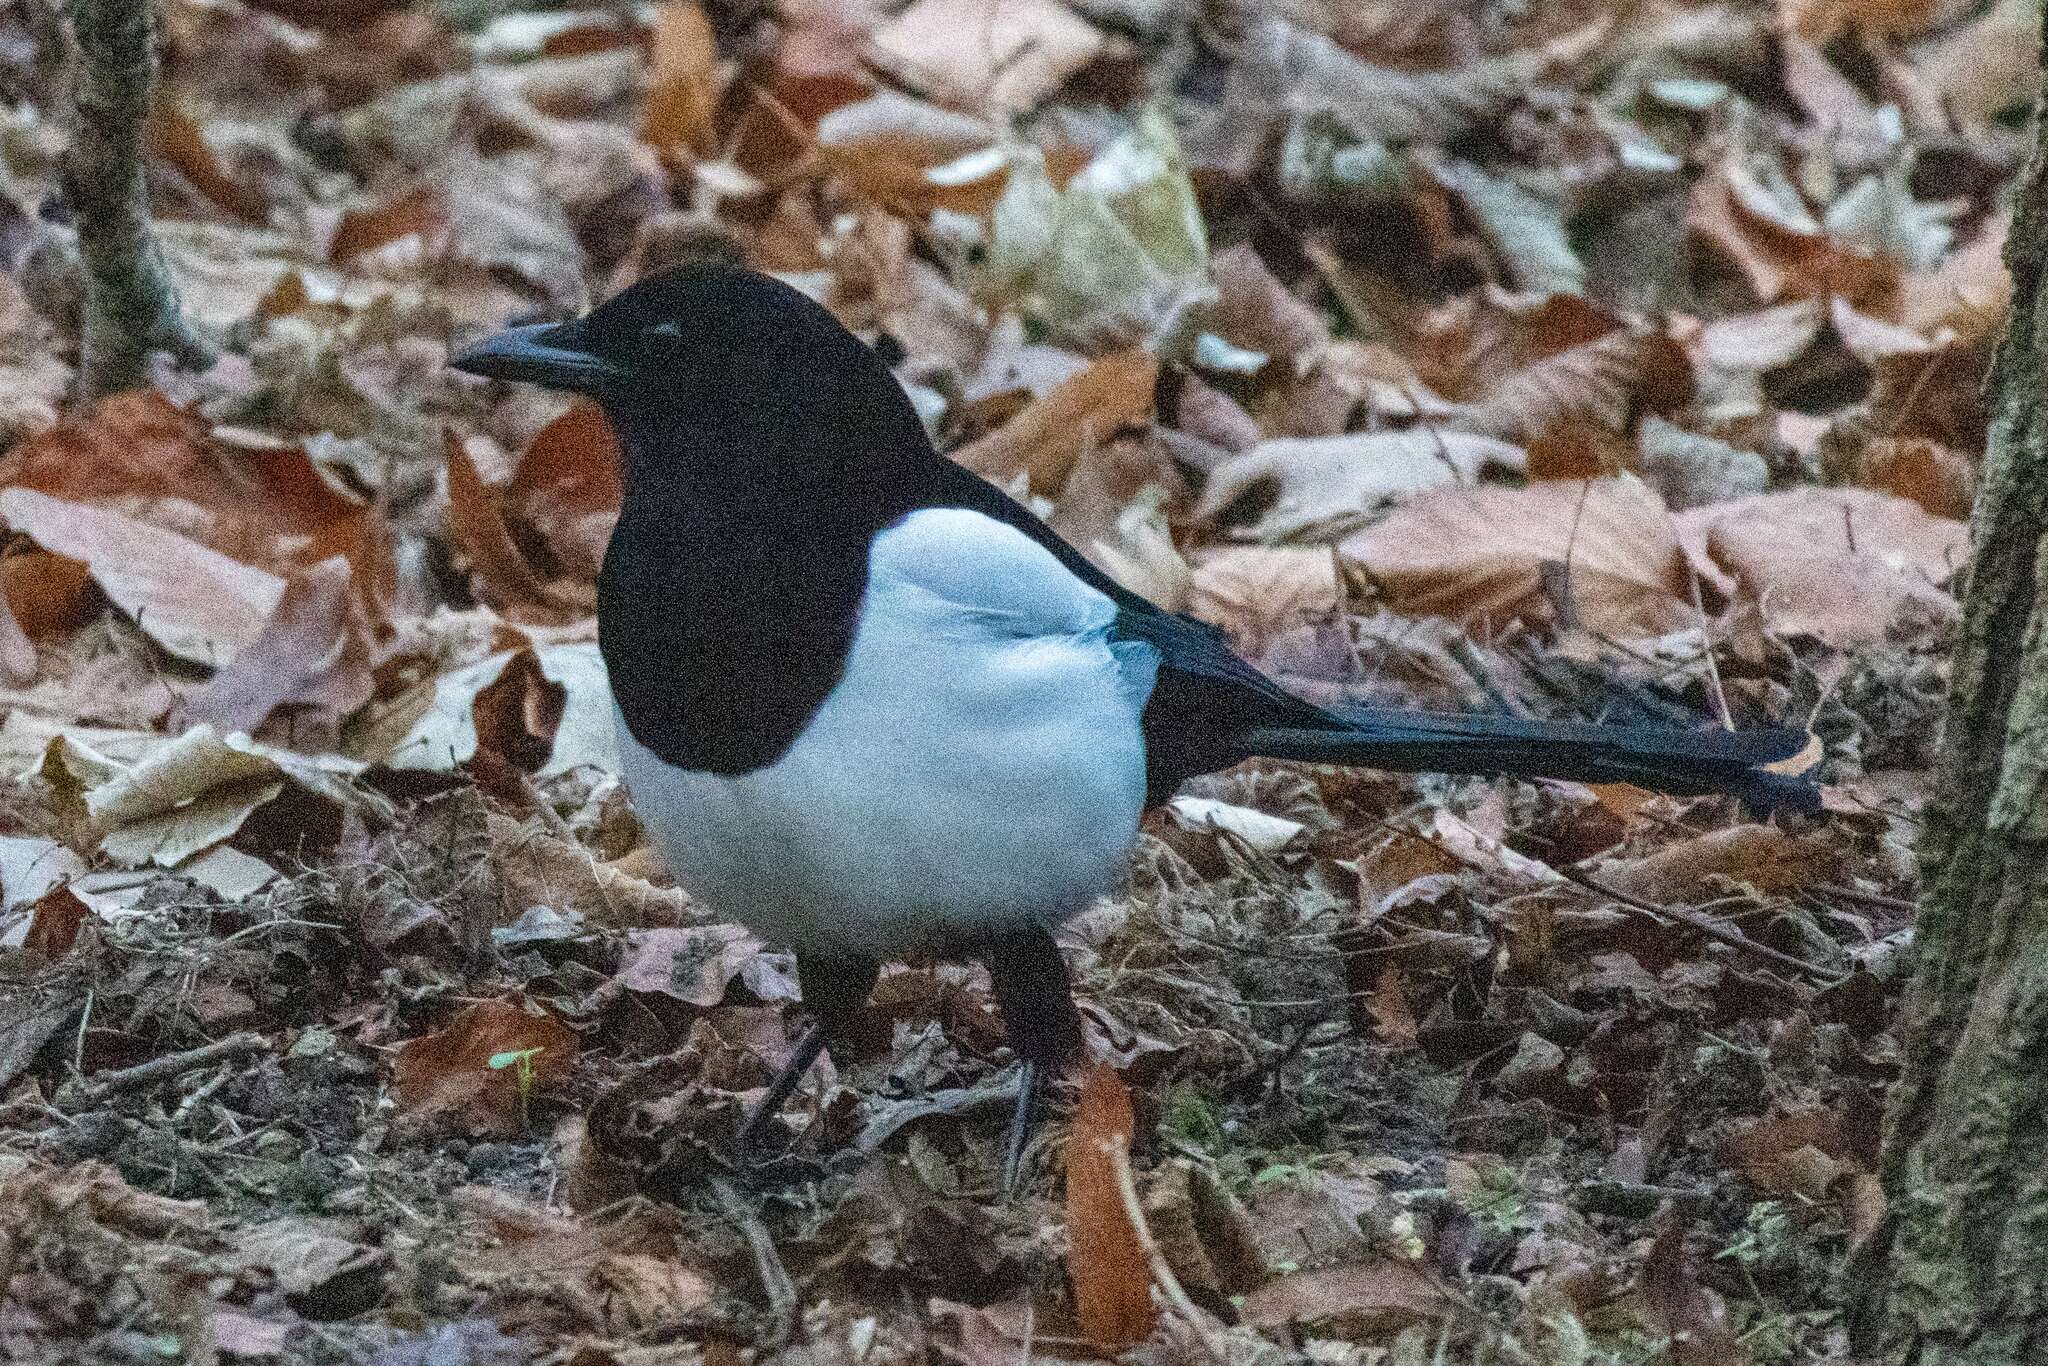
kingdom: Animalia
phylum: Chordata
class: Aves
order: Passeriformes
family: Corvidae
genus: Pica
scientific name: Pica pica
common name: Eurasian magpie
